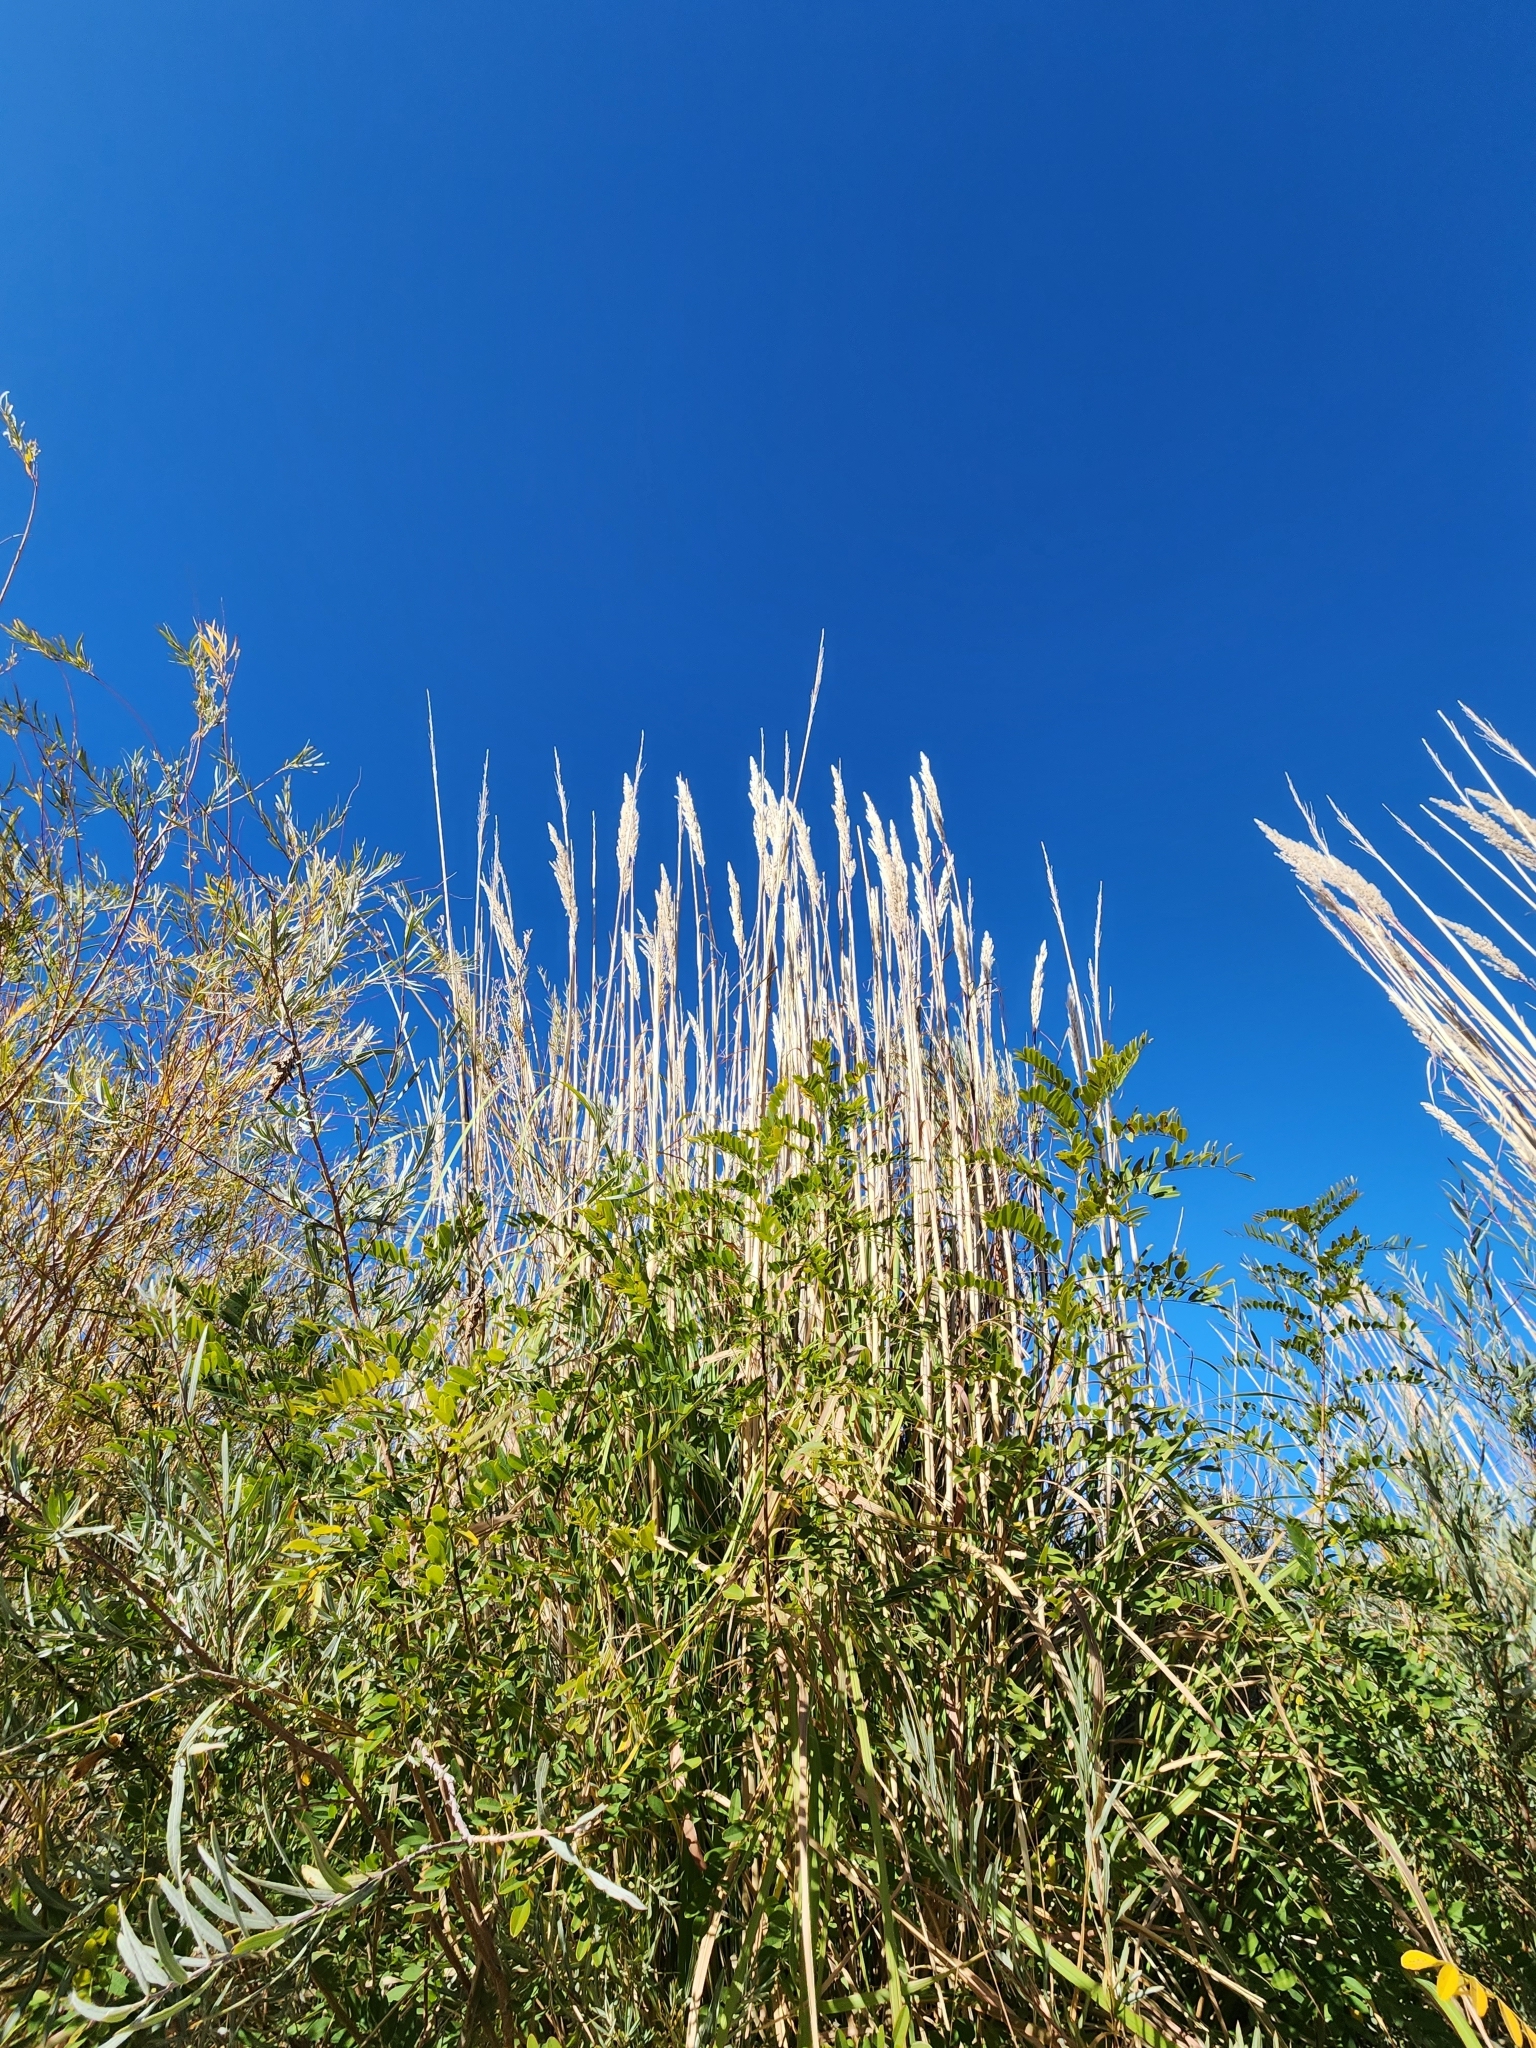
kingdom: Plantae
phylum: Tracheophyta
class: Liliopsida
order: Poales
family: Poaceae
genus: Tripidium
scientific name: Tripidium ravennae
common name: Ravenna grass
